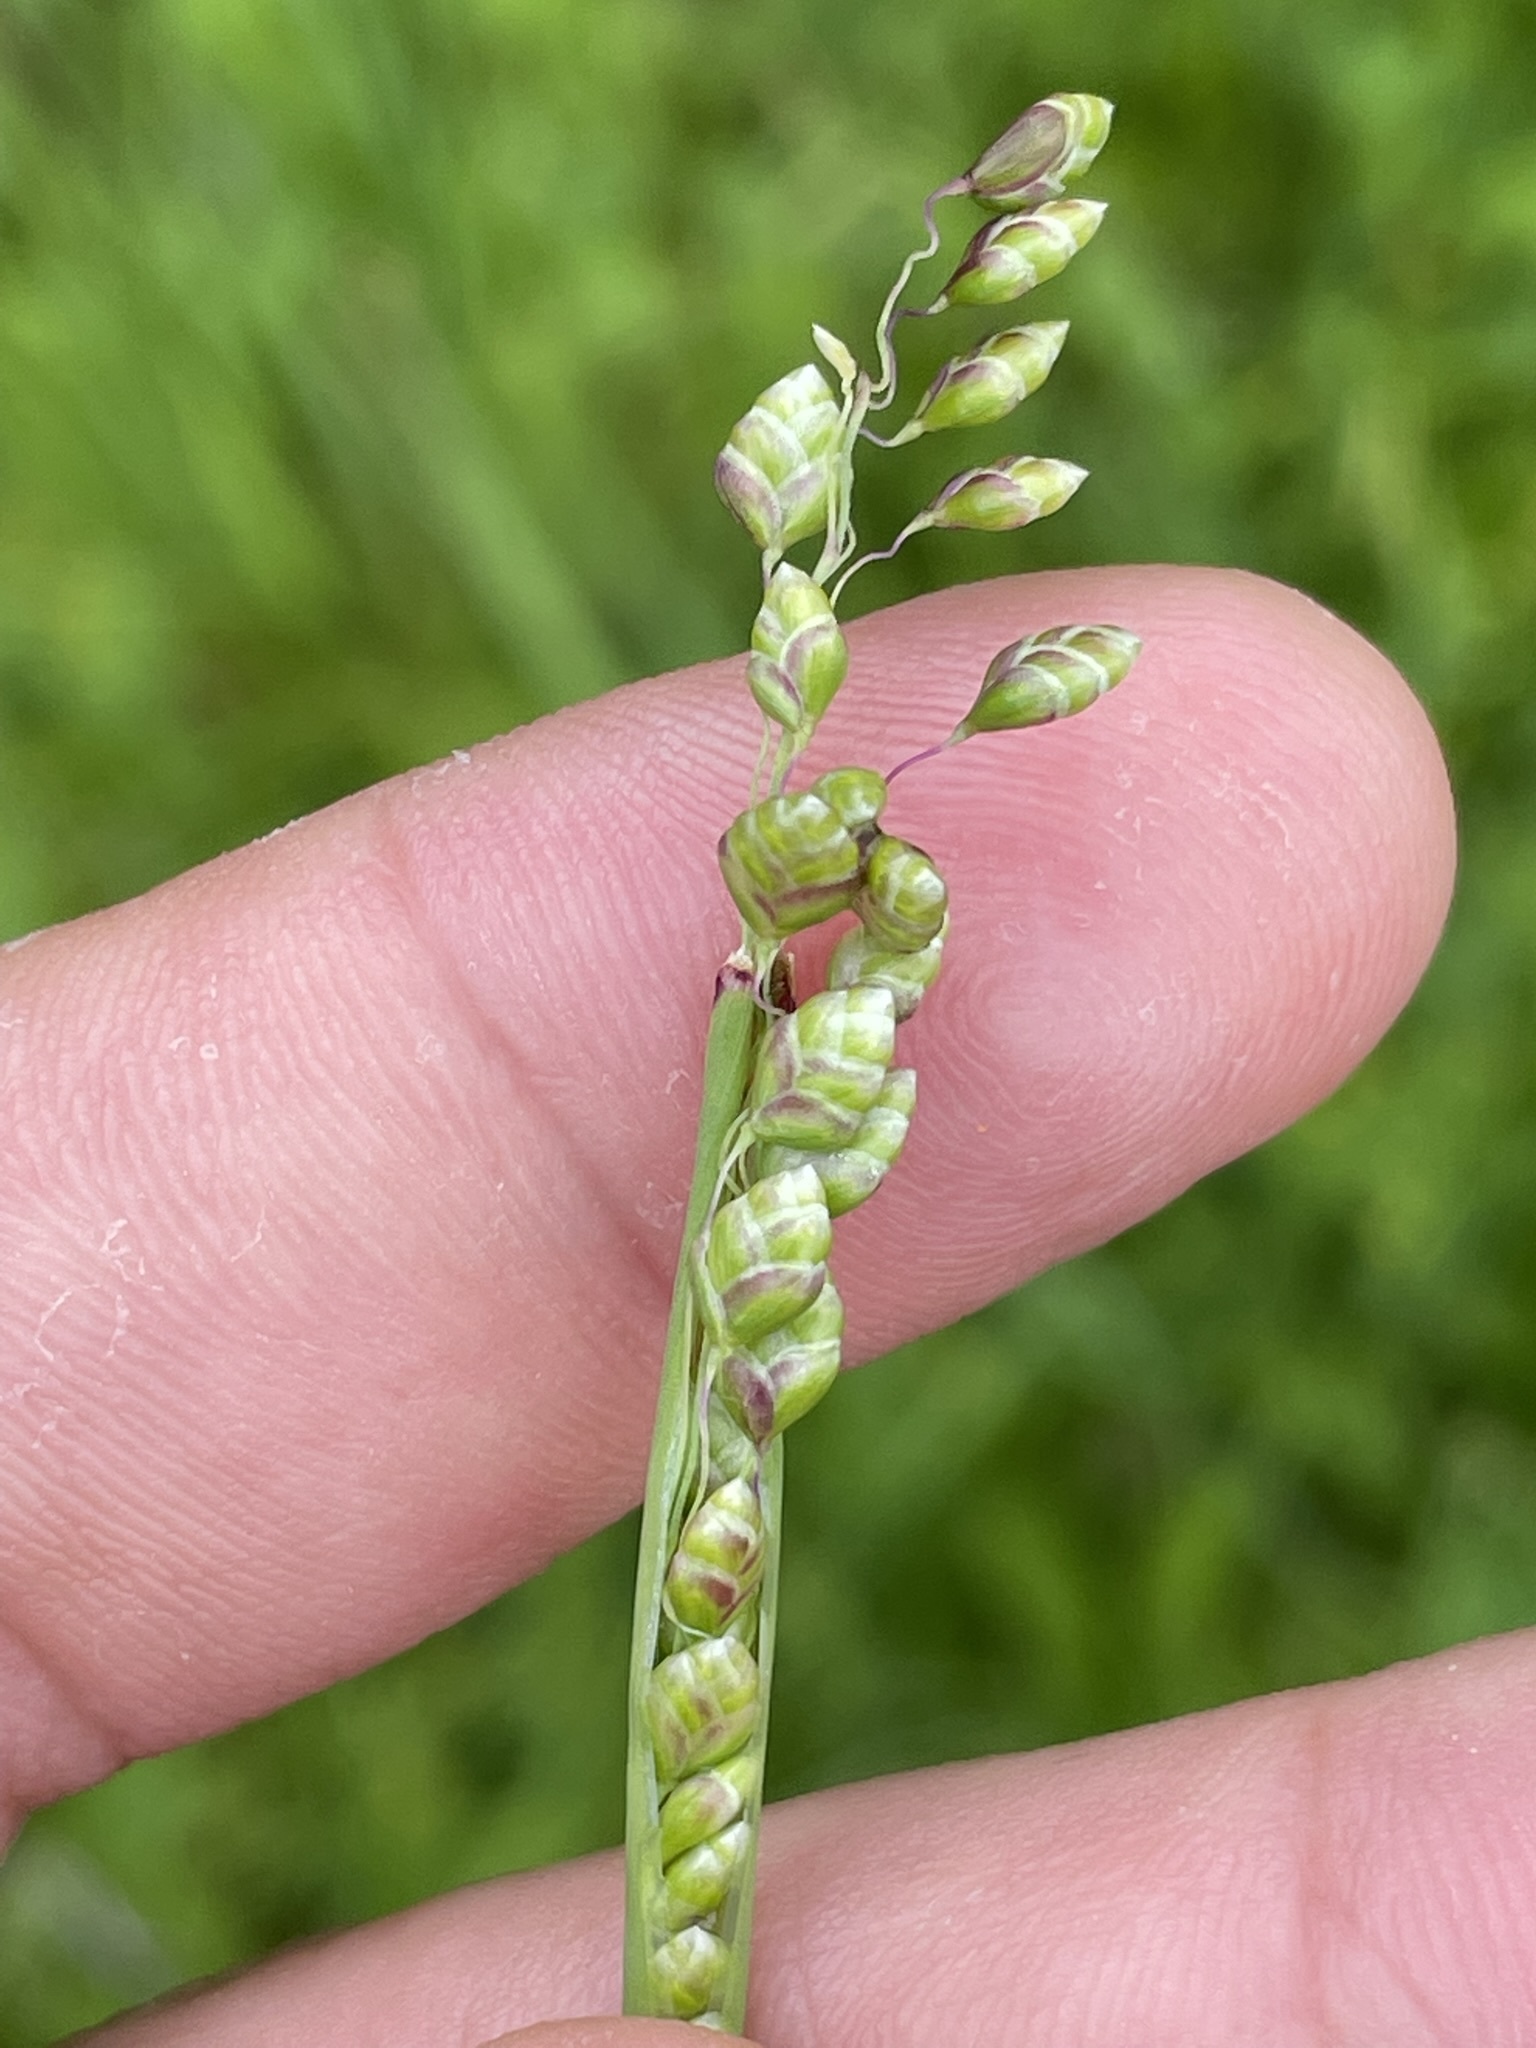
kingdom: Plantae
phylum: Tracheophyta
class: Liliopsida
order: Poales
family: Poaceae
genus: Briza
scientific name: Briza media
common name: Quaking grass
